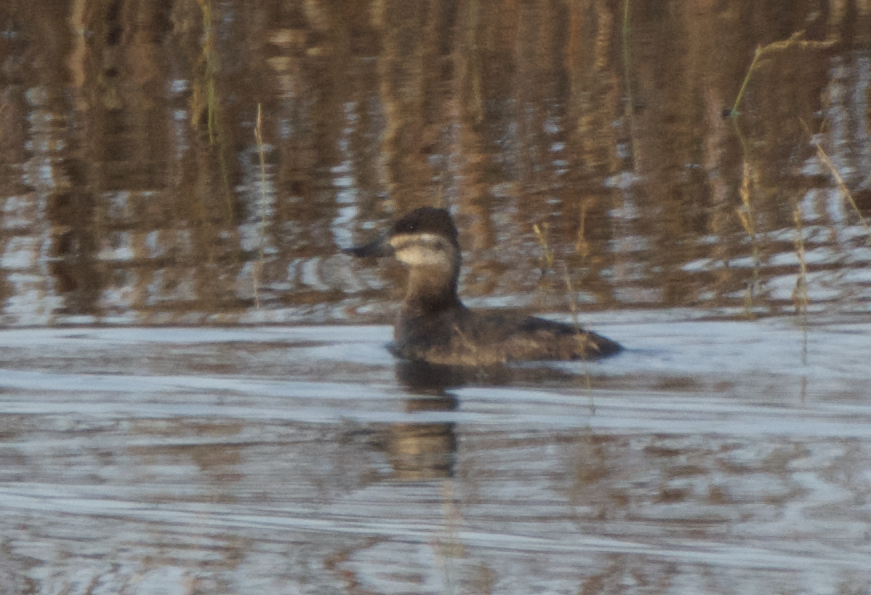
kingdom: Animalia
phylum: Chordata
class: Aves
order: Anseriformes
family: Anatidae
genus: Oxyura
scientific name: Oxyura jamaicensis
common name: Ruddy duck
